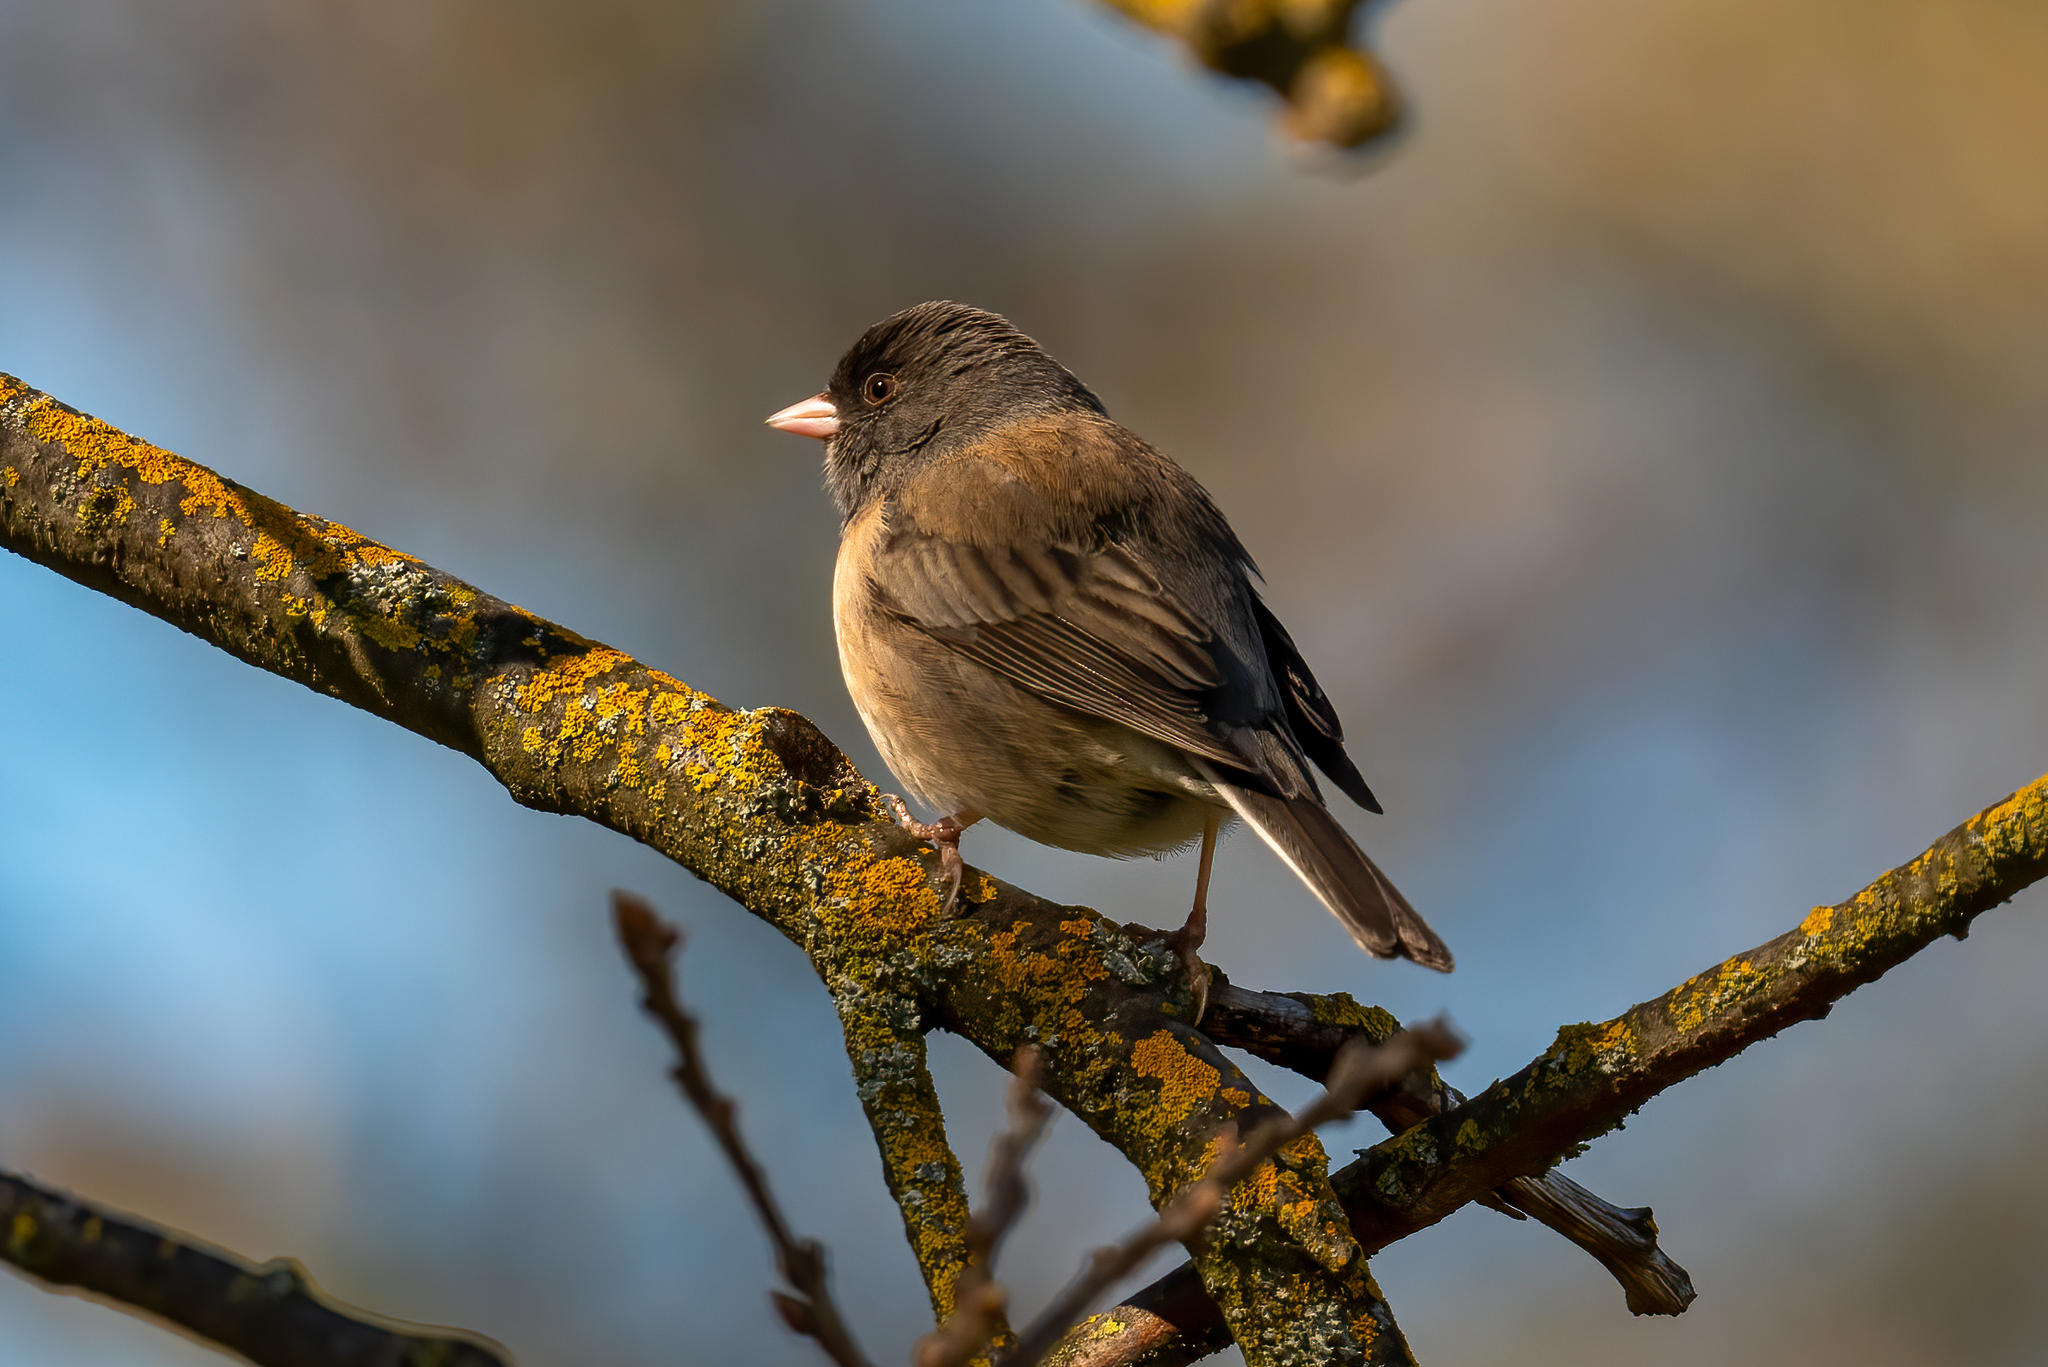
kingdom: Animalia
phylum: Chordata
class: Aves
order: Passeriformes
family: Passerellidae
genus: Junco
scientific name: Junco hyemalis
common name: Dark-eyed junco
